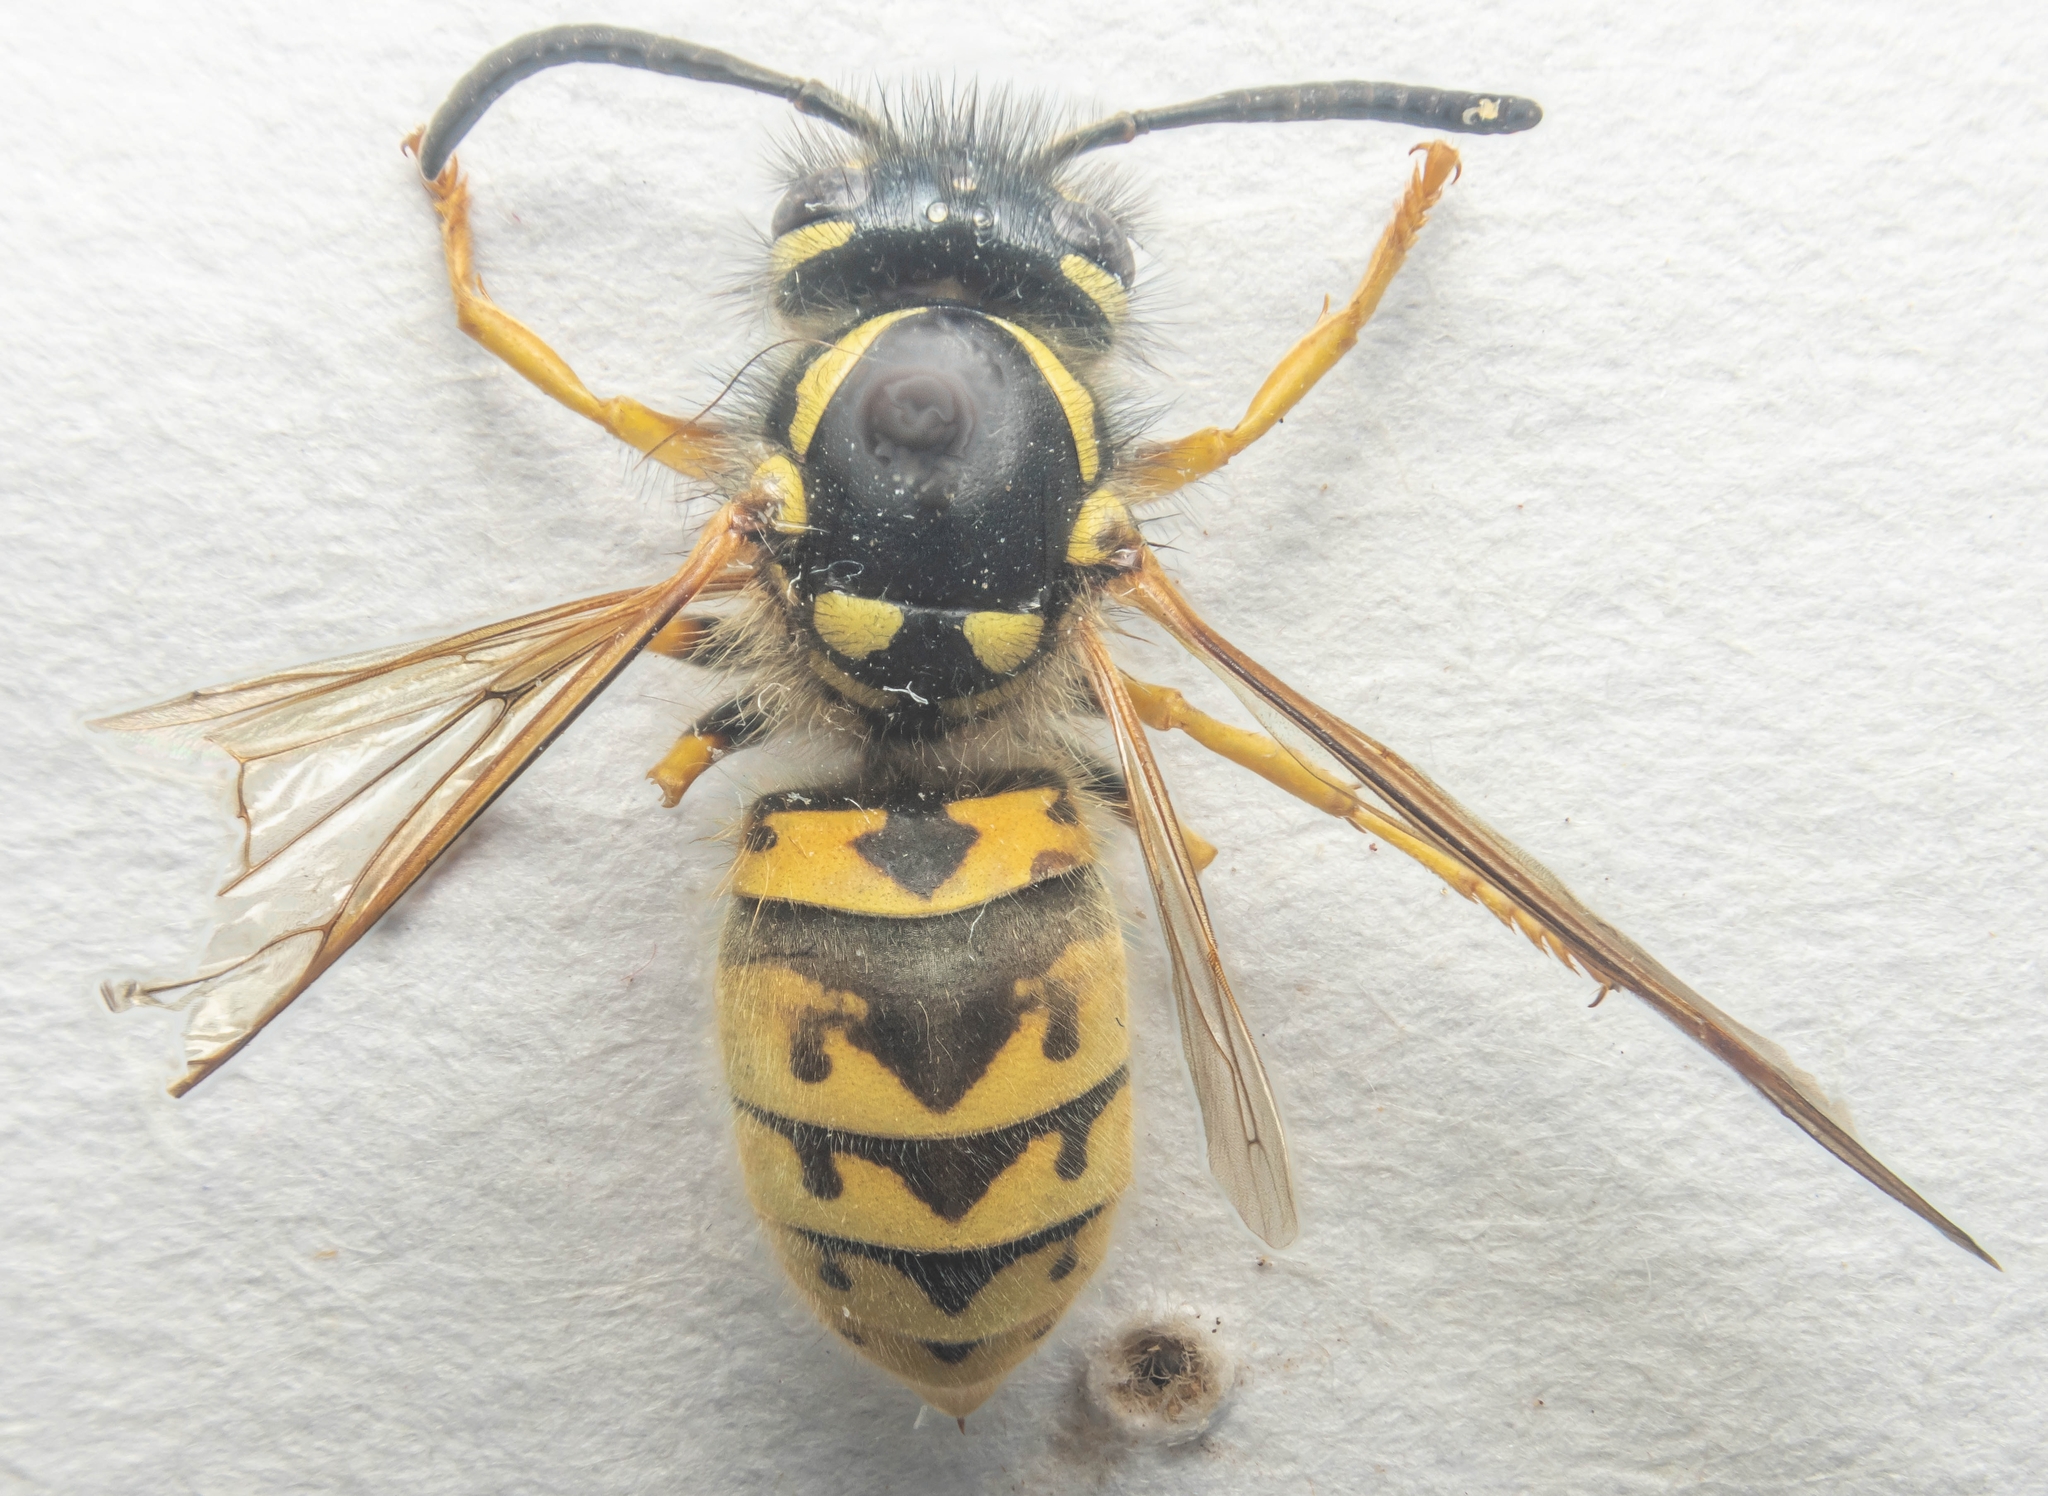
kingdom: Animalia
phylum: Arthropoda
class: Insecta
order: Hymenoptera
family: Vespidae
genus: Vespula
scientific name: Vespula germanica
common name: German wasp
